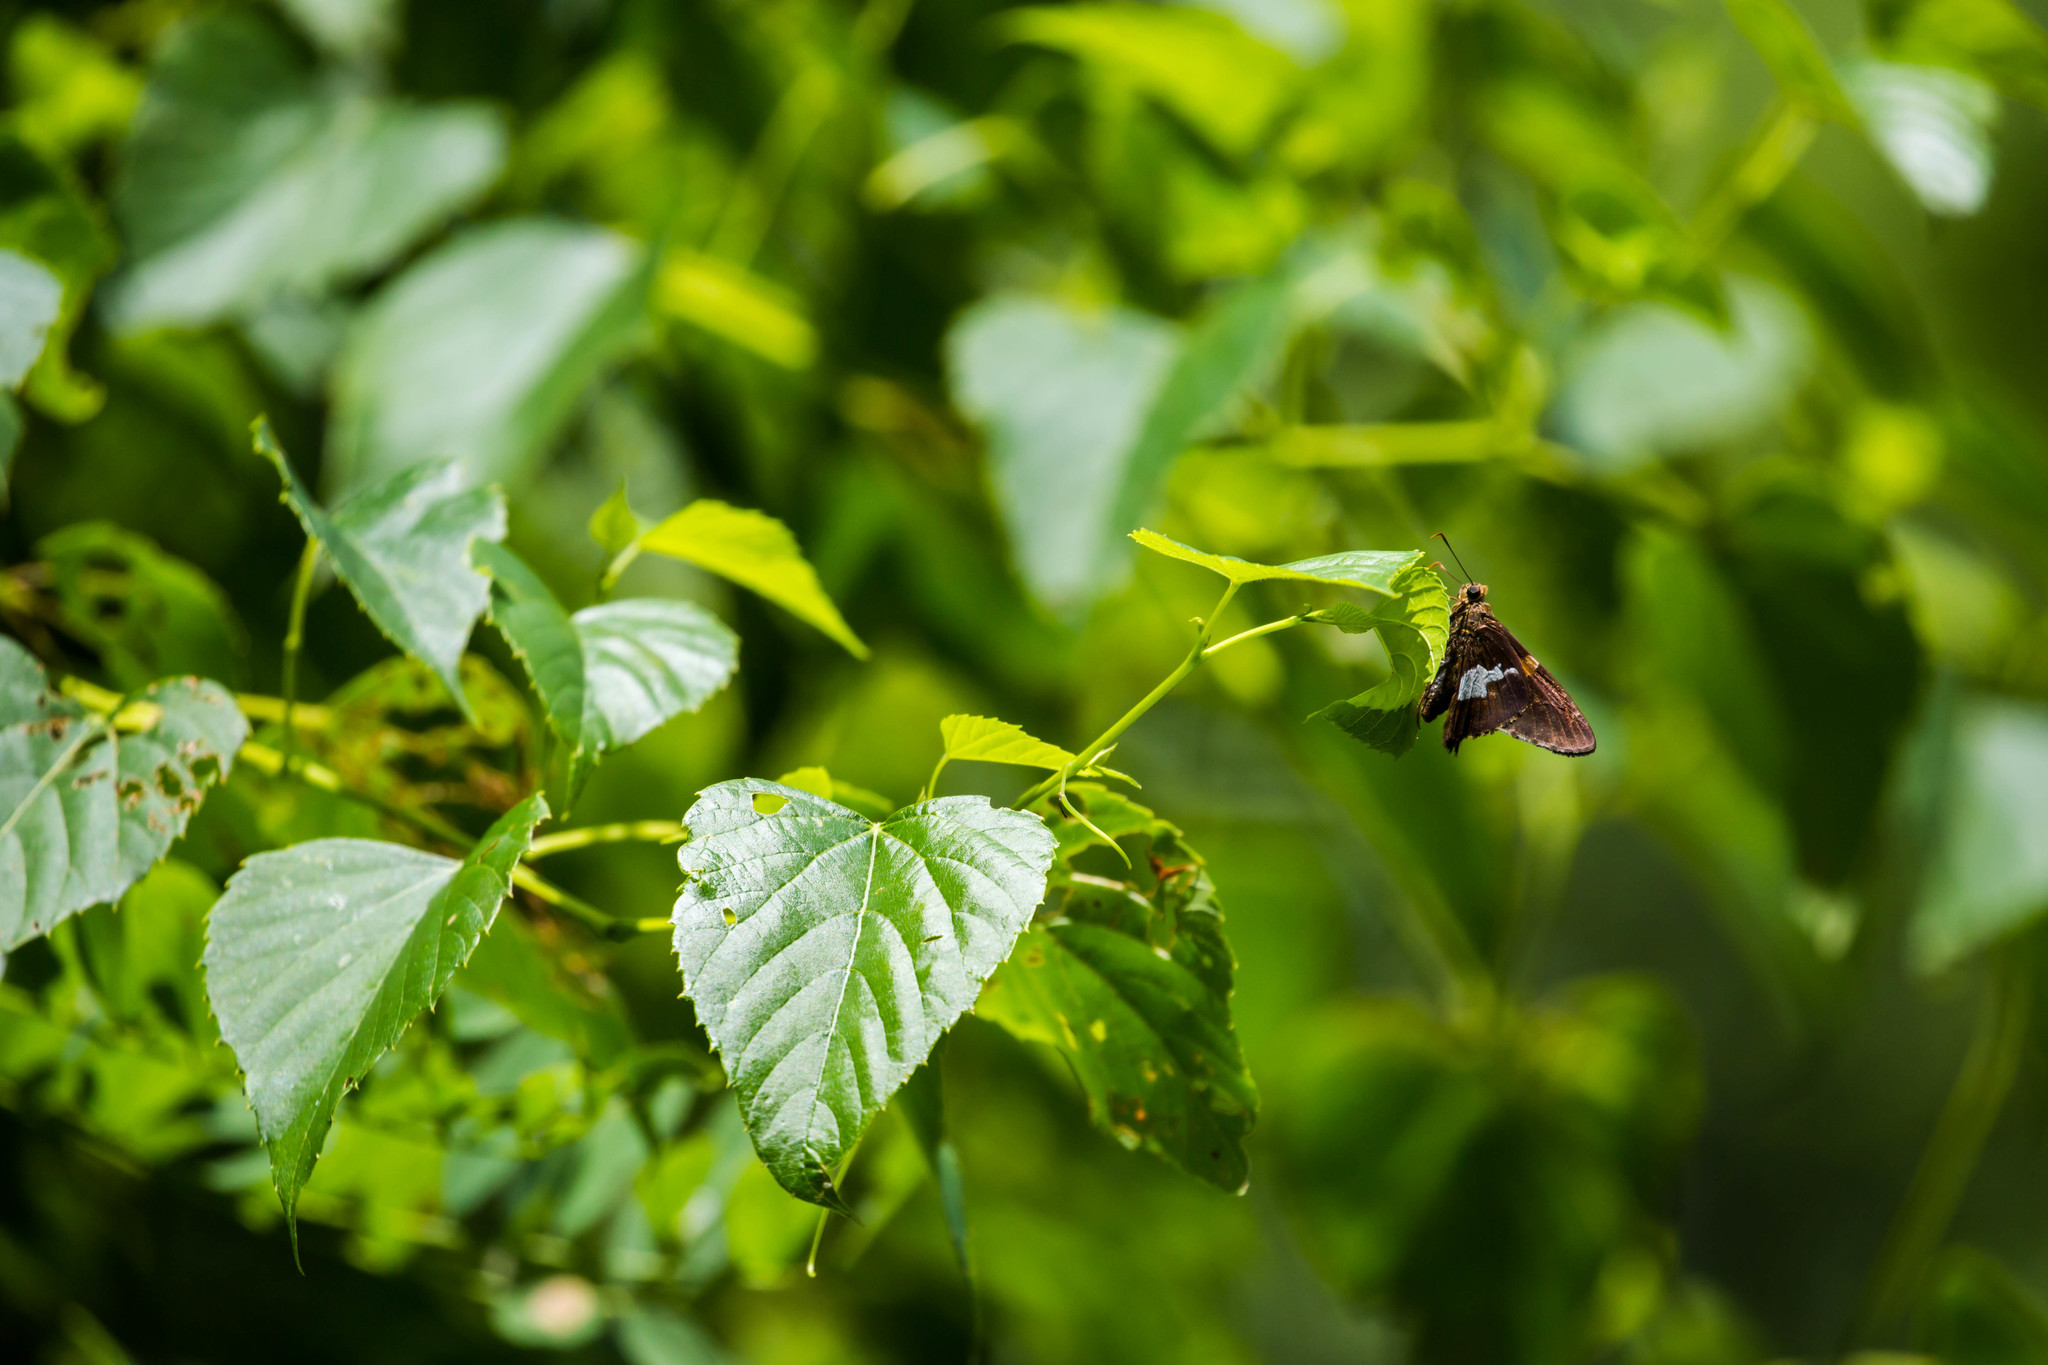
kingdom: Animalia
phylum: Arthropoda
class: Insecta
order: Lepidoptera
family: Hesperiidae
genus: Epargyreus
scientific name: Epargyreus clarus
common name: Silver-spotted skipper
